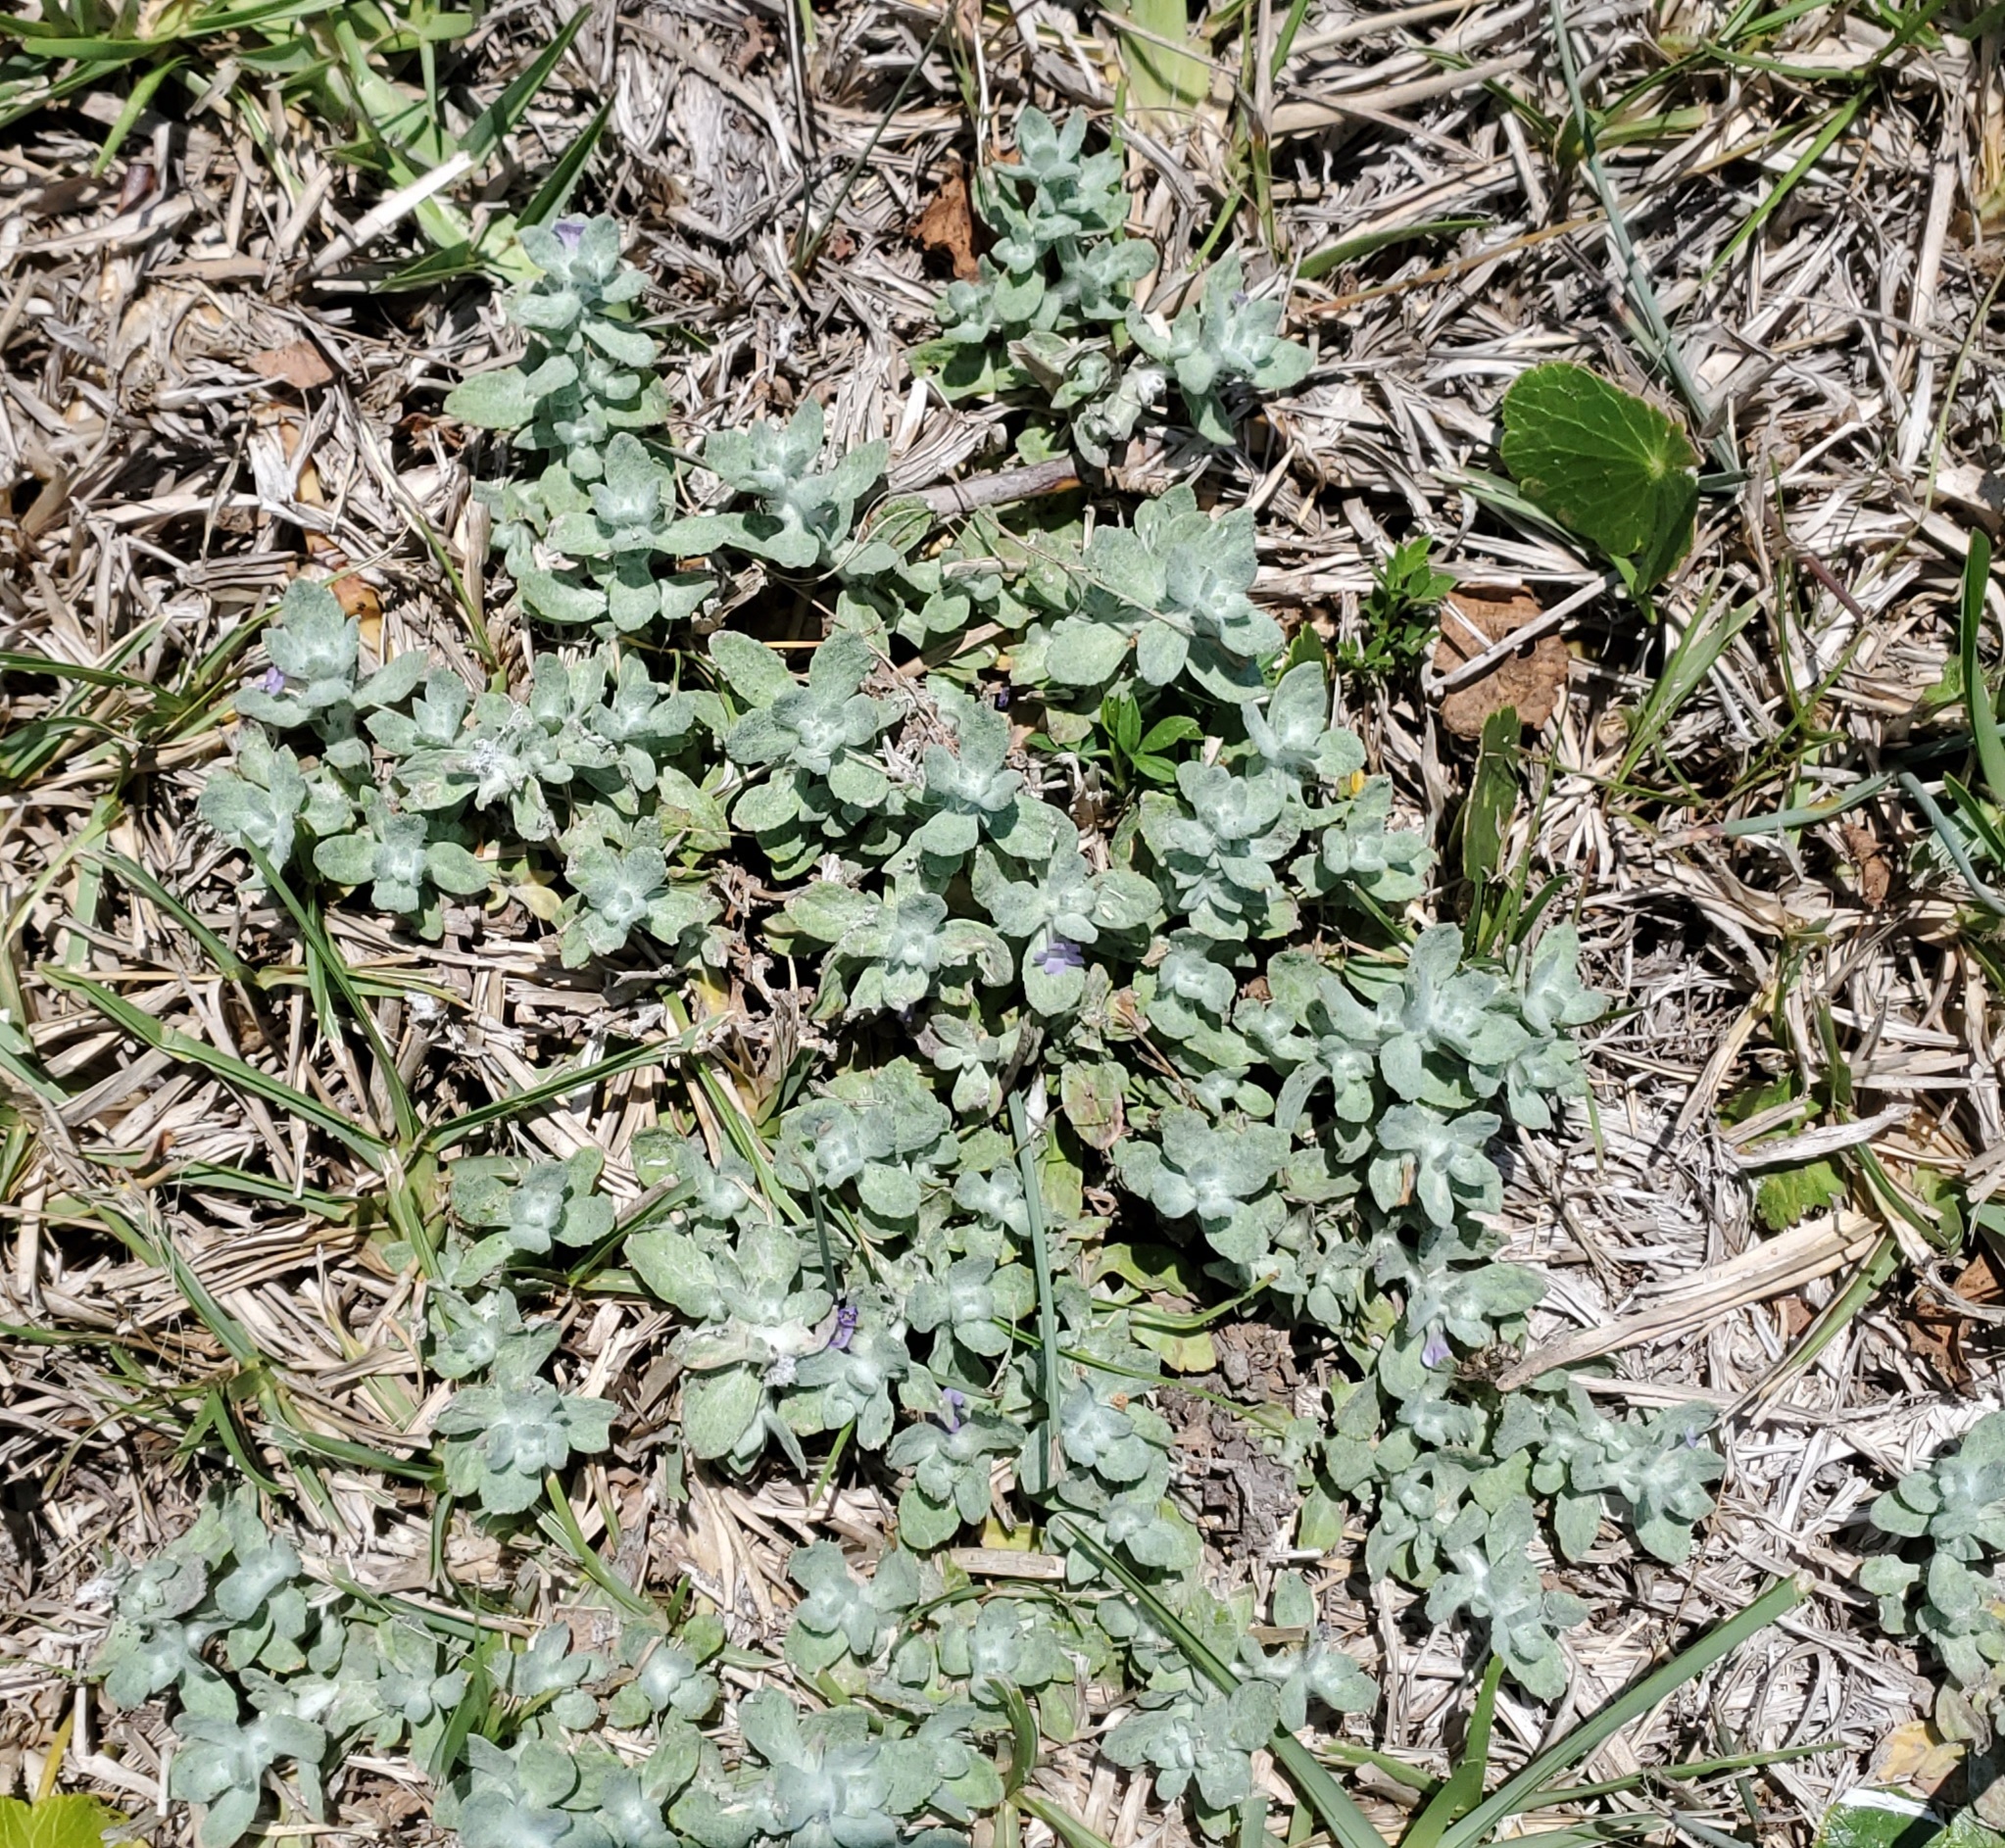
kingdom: Plantae
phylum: Tracheophyta
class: Magnoliopsida
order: Lamiales
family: Plantaginaceae
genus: Stemodia
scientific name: Stemodia lanata
